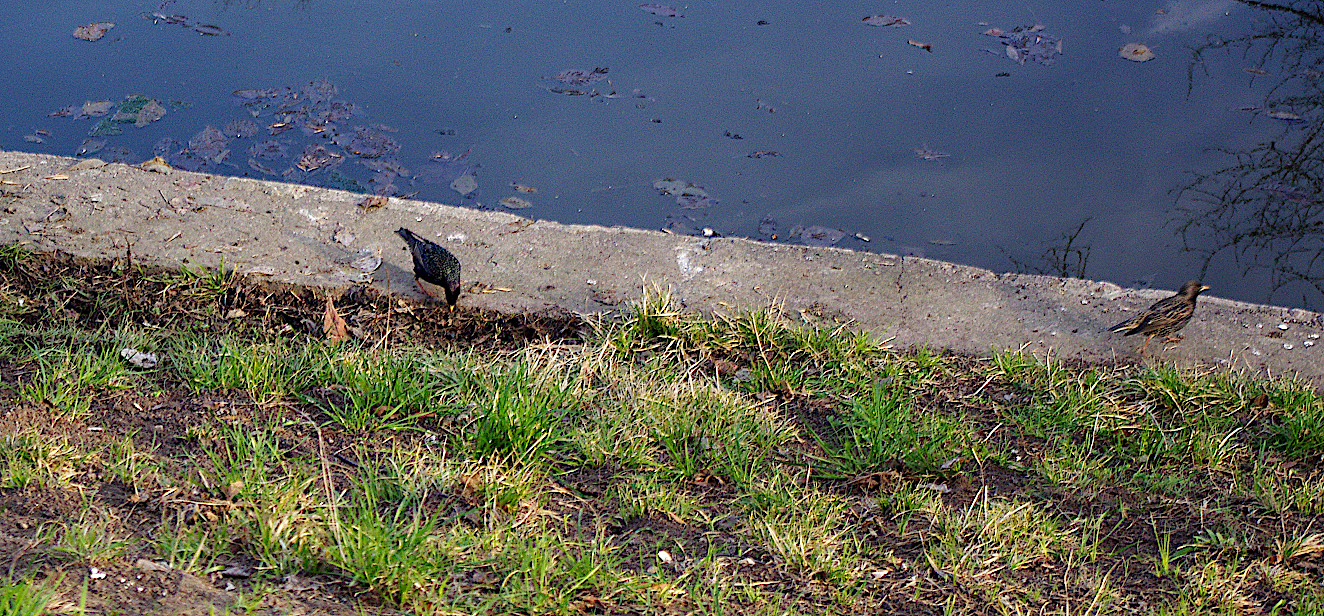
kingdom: Animalia
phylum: Chordata
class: Aves
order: Passeriformes
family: Sturnidae
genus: Sturnus
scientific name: Sturnus vulgaris
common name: Common starling
